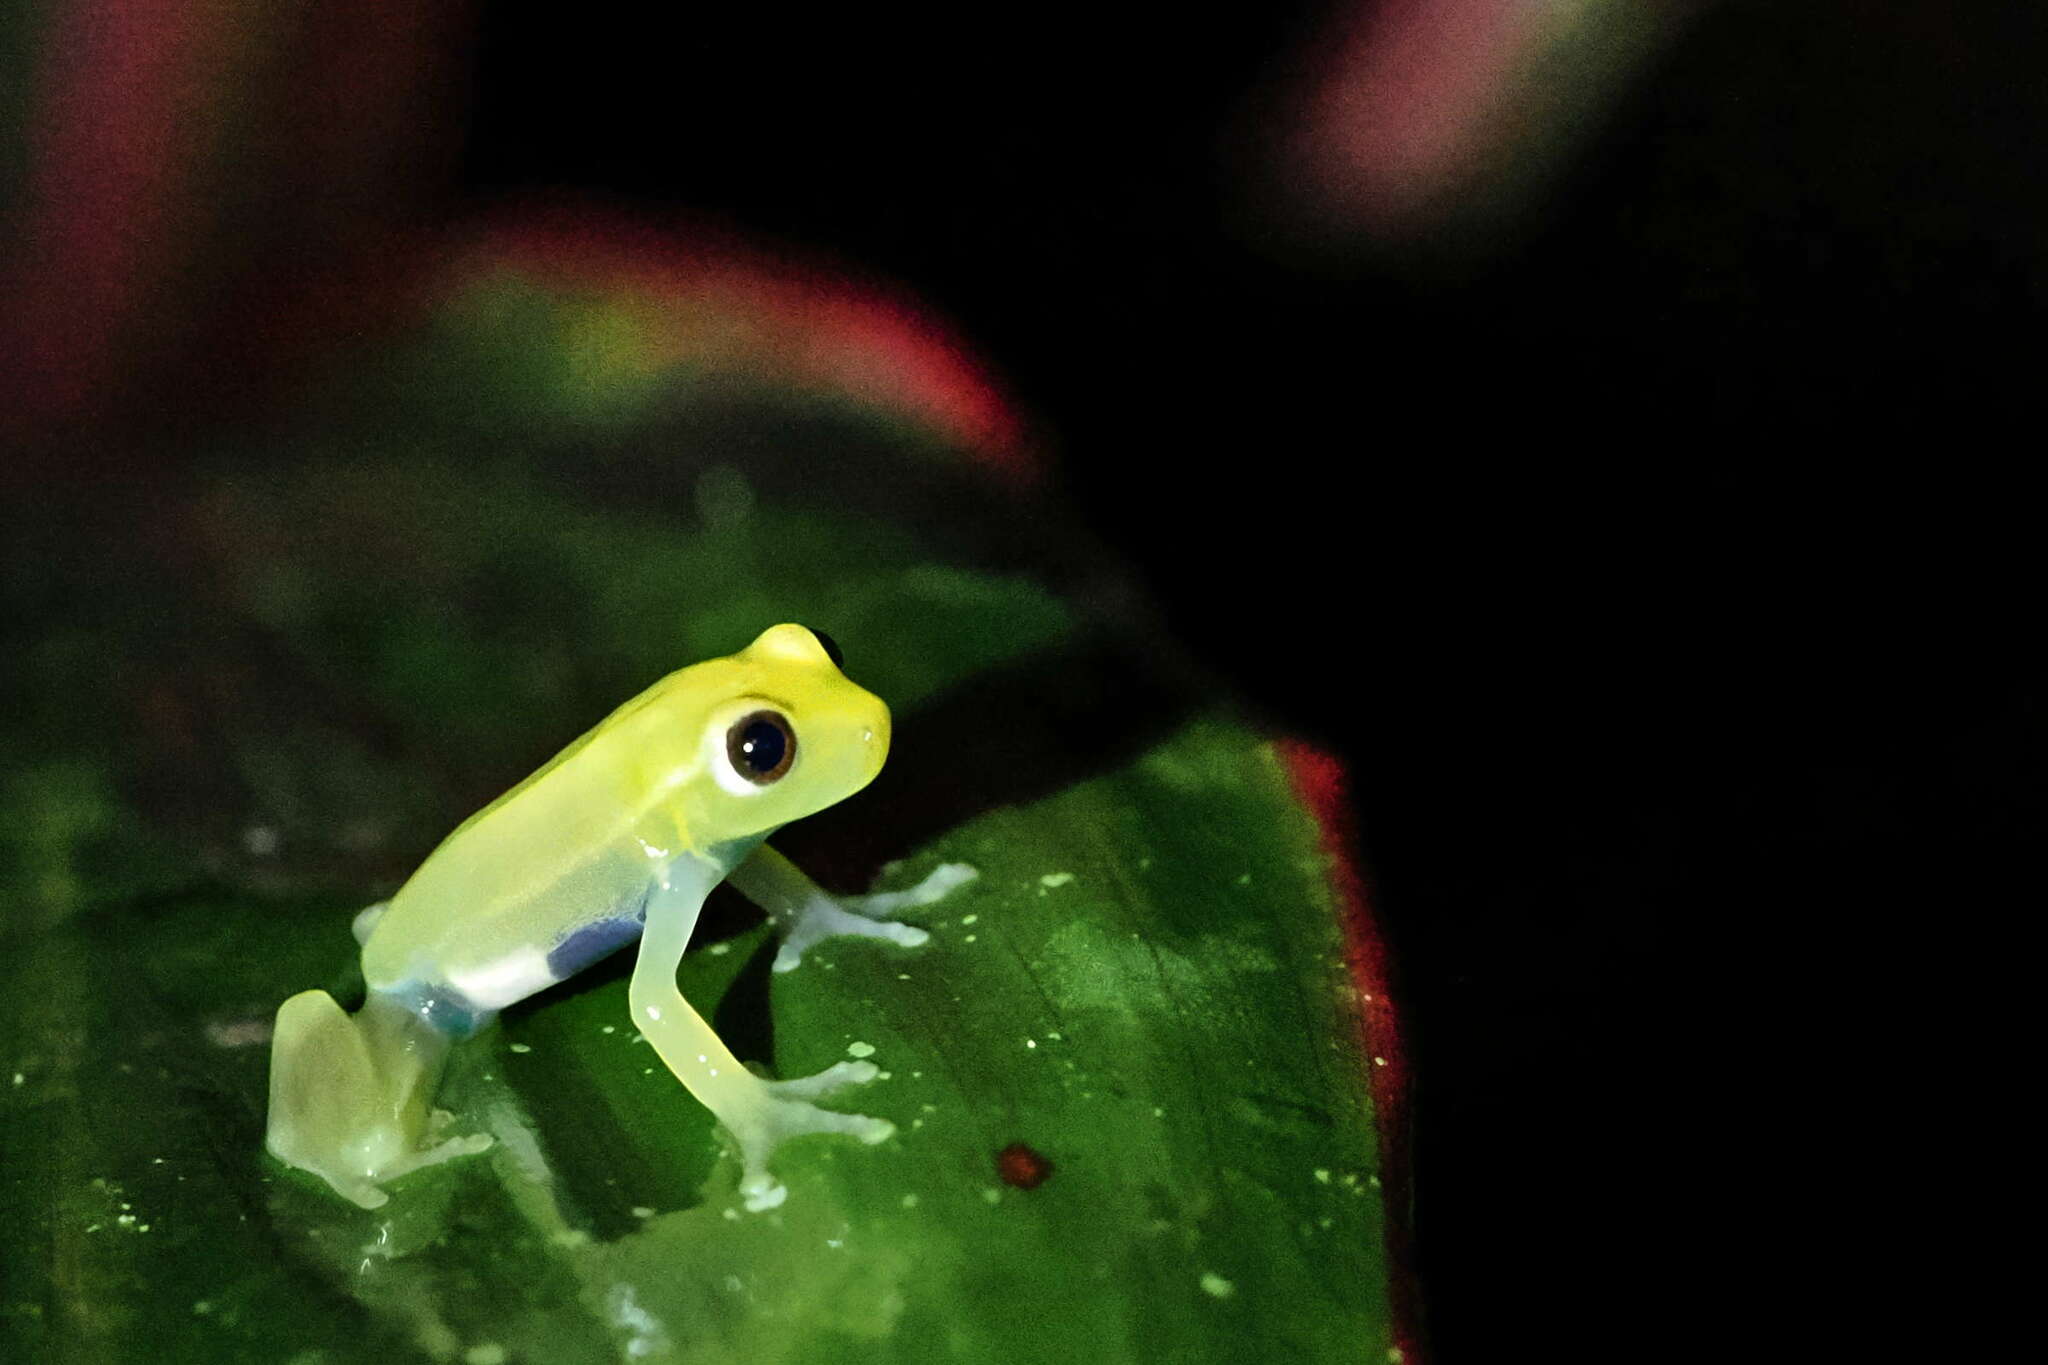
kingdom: Animalia
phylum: Chordata
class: Amphibia
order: Anura
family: Hylidae
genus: Boana
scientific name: Boana punctata
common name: Polka-dot treefrog
